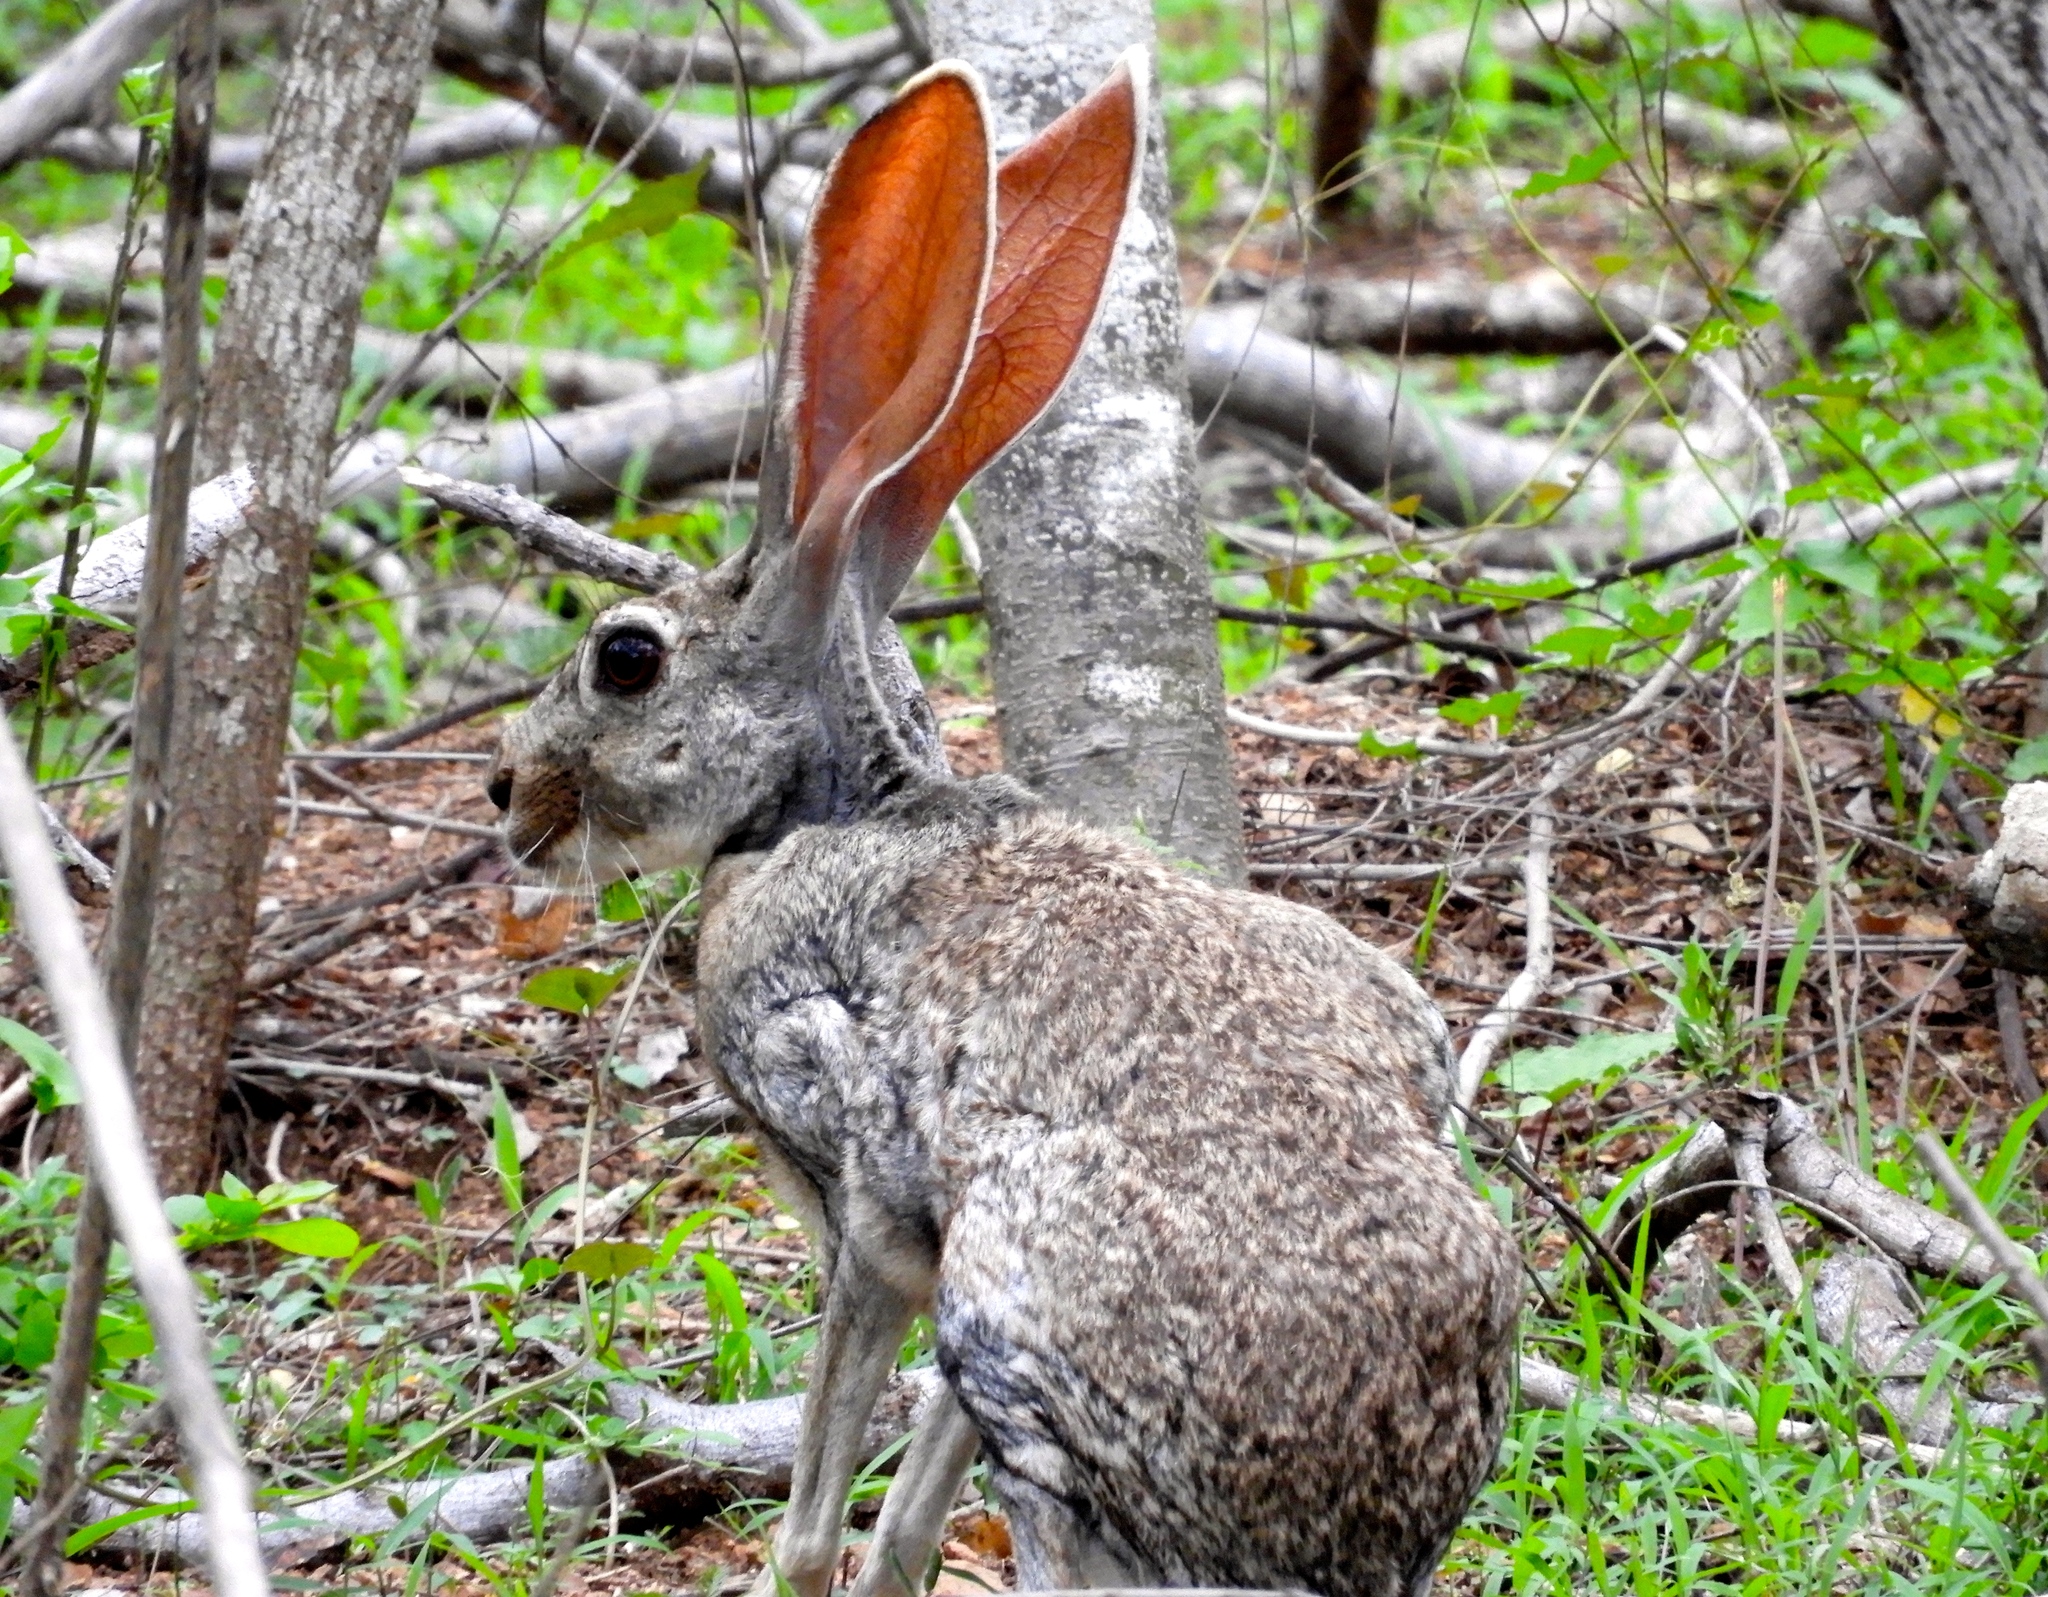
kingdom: Animalia
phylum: Chordata
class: Mammalia
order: Lagomorpha
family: Leporidae
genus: Lepus
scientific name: Lepus alleni
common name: Antelope jackrabbit
